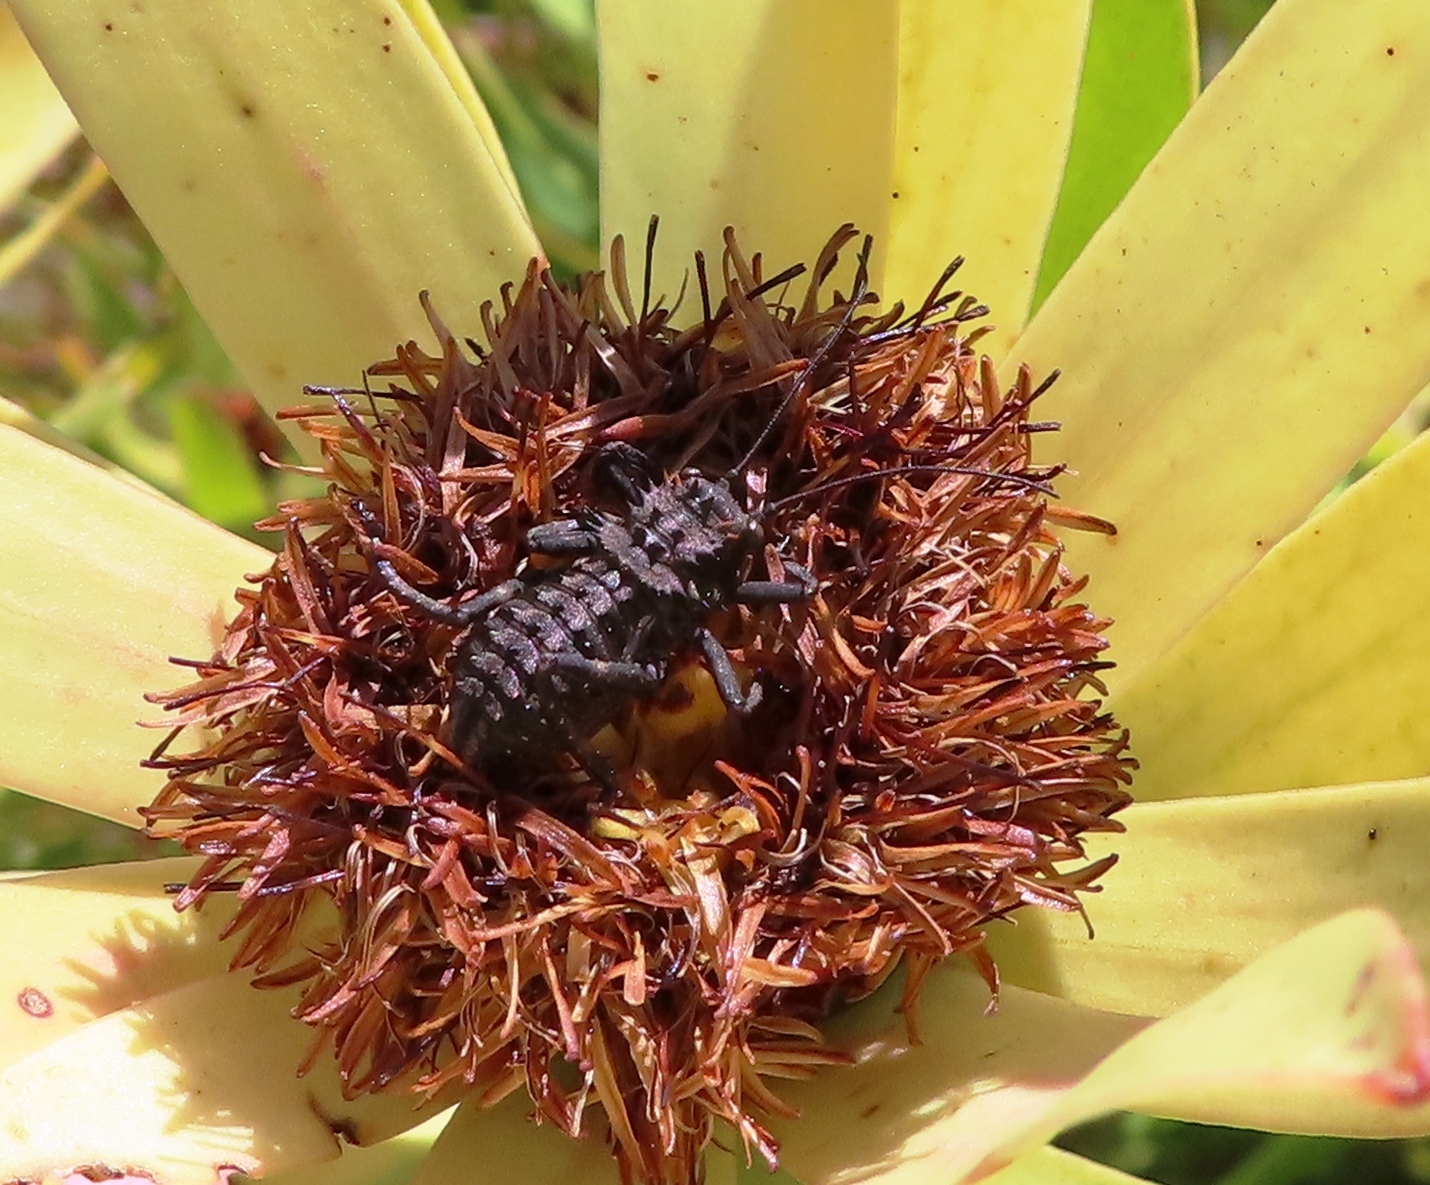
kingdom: Animalia
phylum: Arthropoda
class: Insecta
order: Orthoptera
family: Tettigoniidae
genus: Hetrodes
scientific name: Hetrodes pupus
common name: Koringkriek
